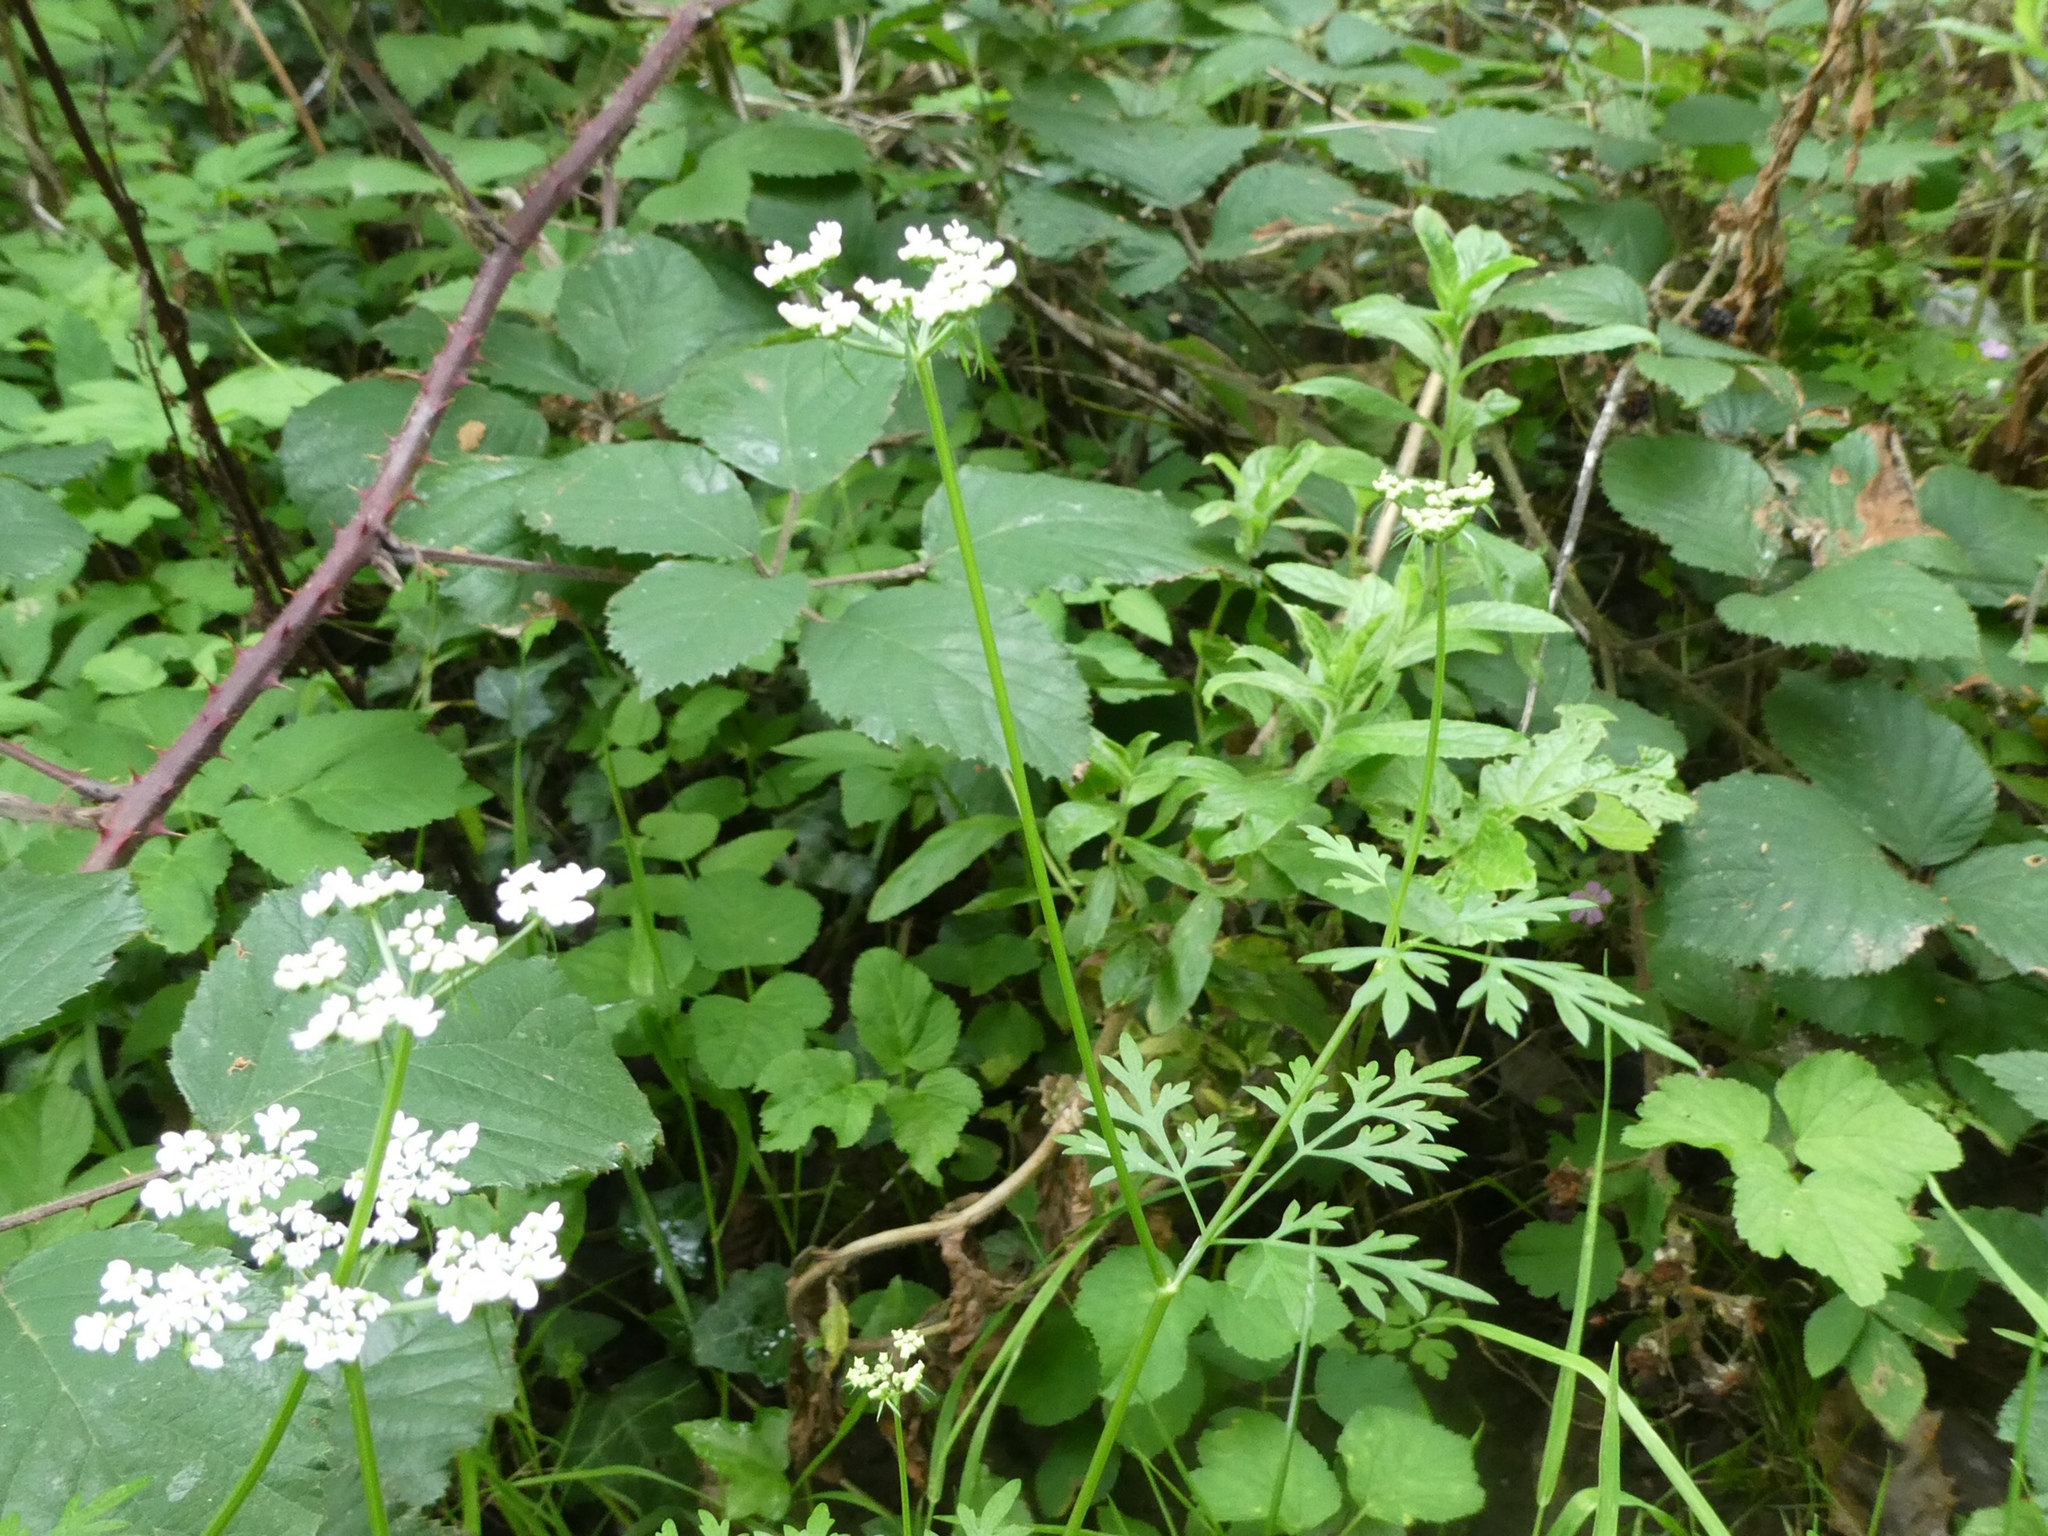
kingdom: Plantae
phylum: Tracheophyta
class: Magnoliopsida
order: Apiales
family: Apiaceae
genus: Aethusa
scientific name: Aethusa cynapium
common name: Fool's parsley
